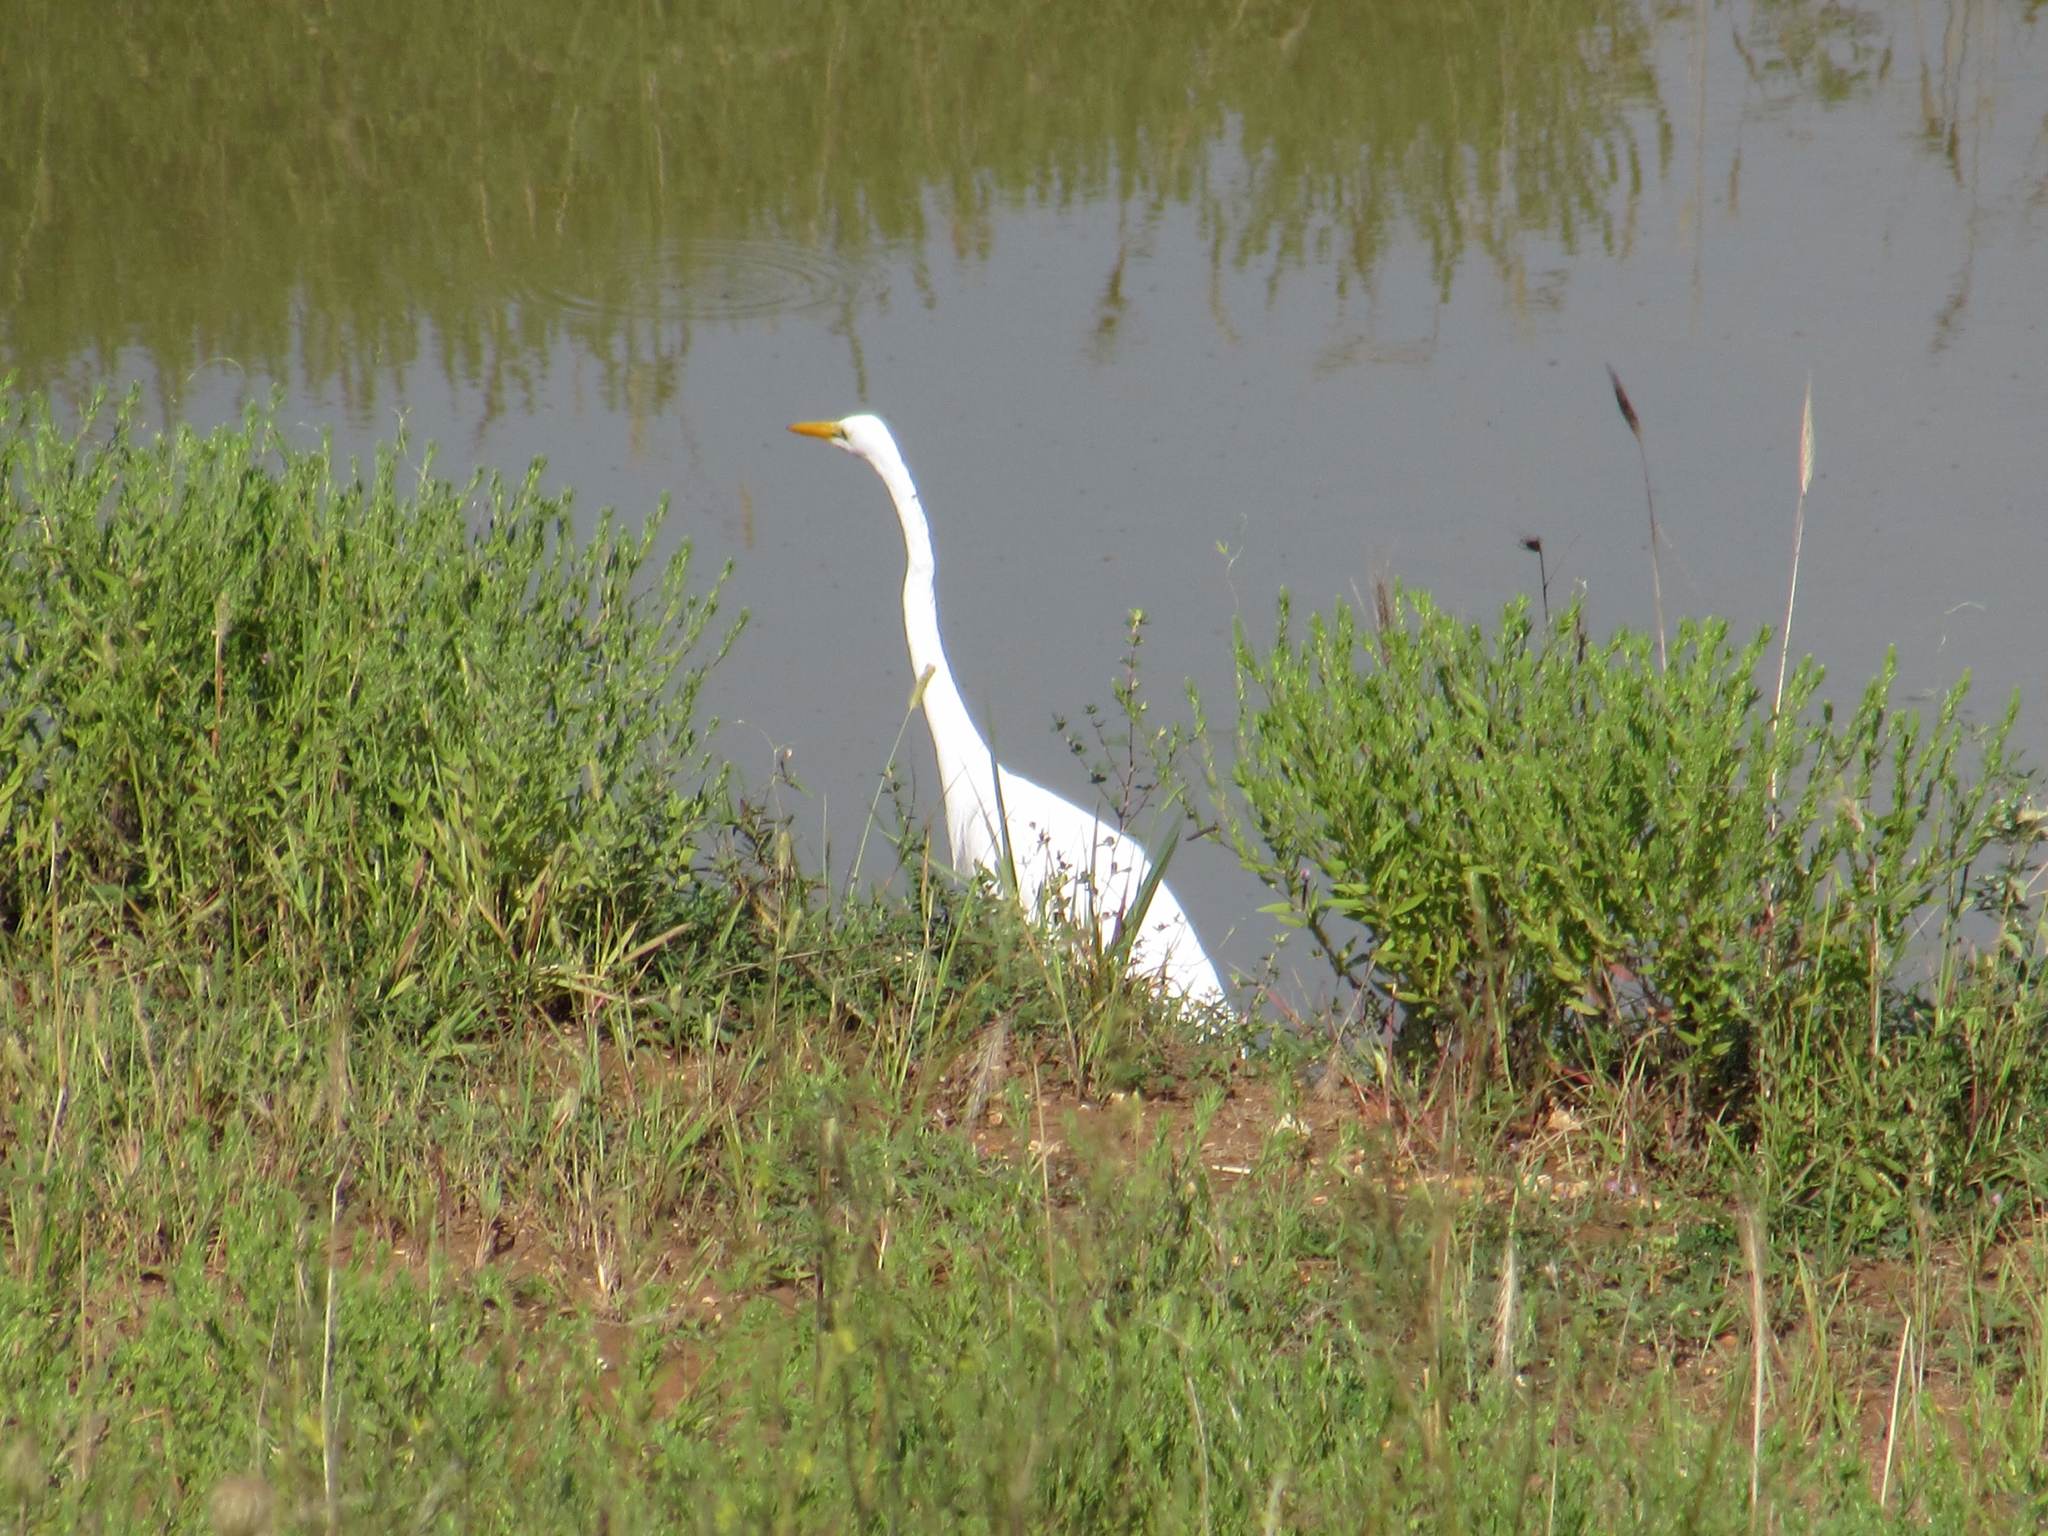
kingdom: Animalia
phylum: Chordata
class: Aves
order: Pelecaniformes
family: Ardeidae
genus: Ardea
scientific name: Ardea alba
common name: Great egret
